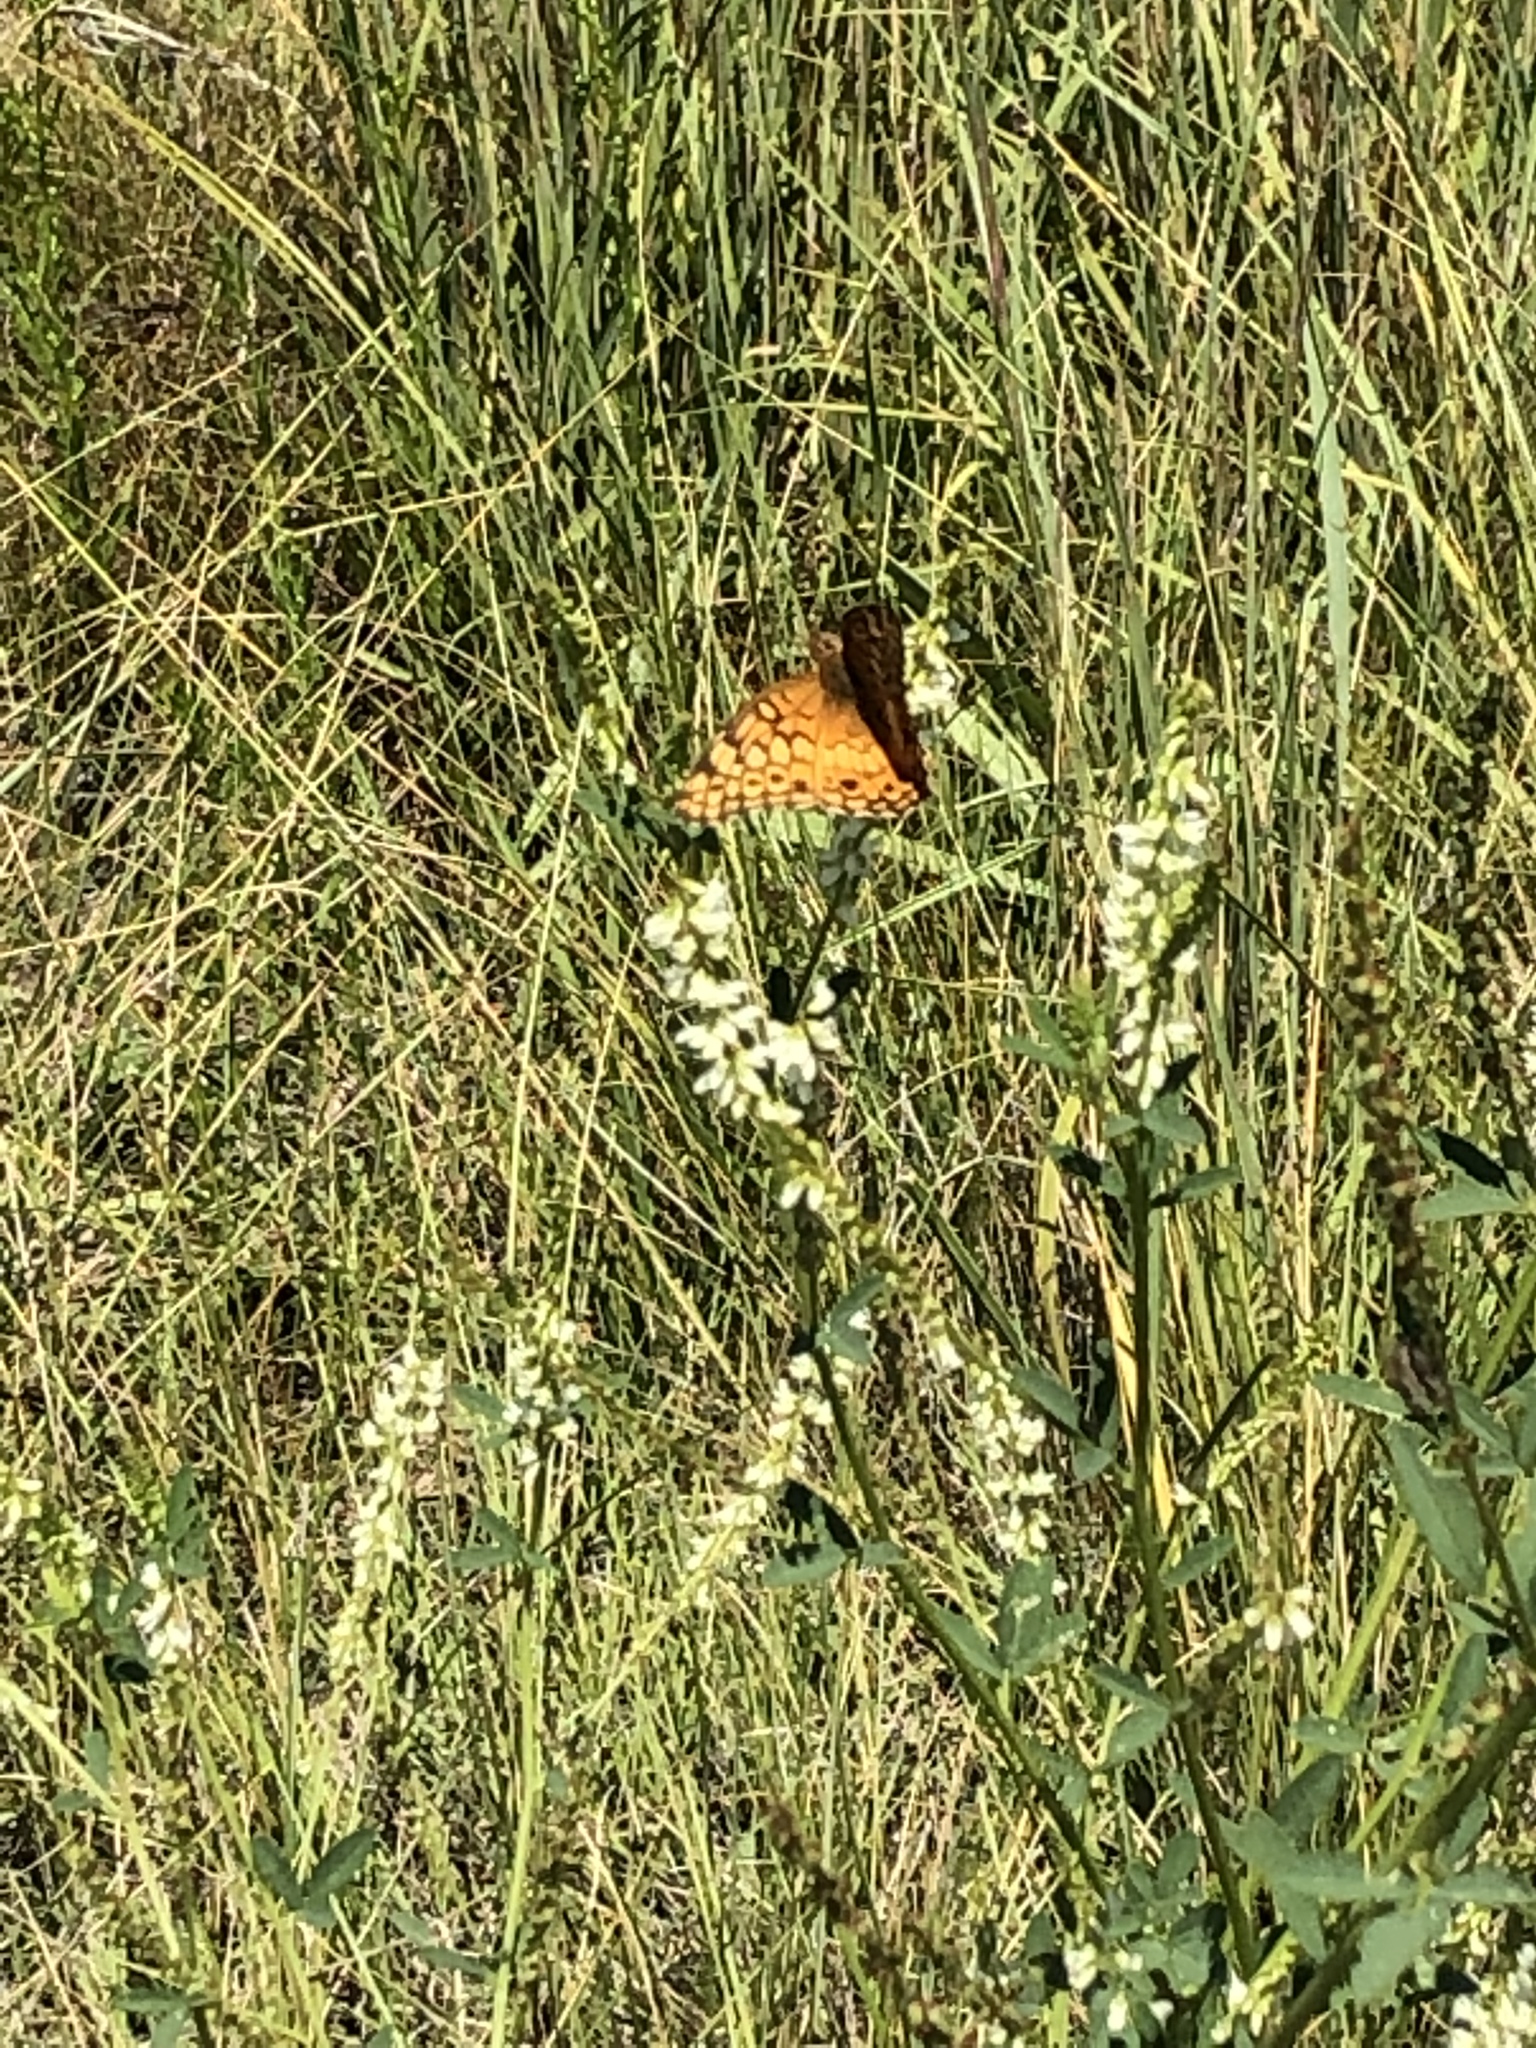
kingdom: Animalia
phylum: Arthropoda
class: Insecta
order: Lepidoptera
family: Nymphalidae
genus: Euptoieta
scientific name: Euptoieta claudia
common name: Variegated fritillary
